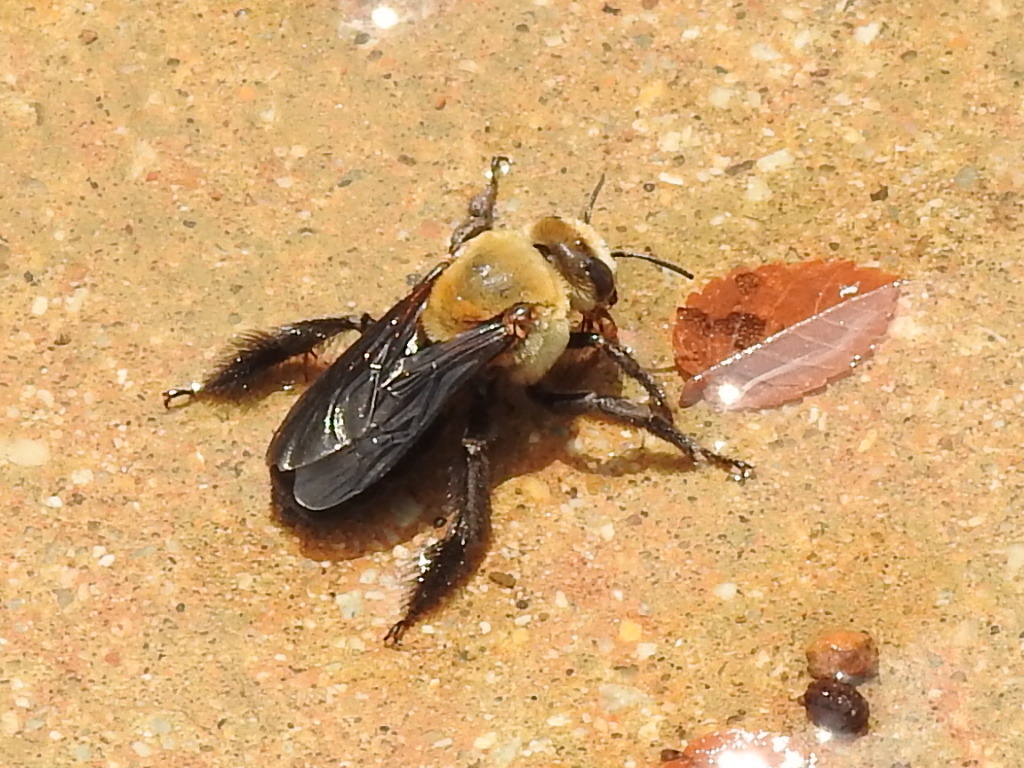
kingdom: Animalia
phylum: Arthropoda
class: Insecta
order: Hymenoptera
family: Apidae
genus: Ptilothrix
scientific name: Ptilothrix bombiformis
